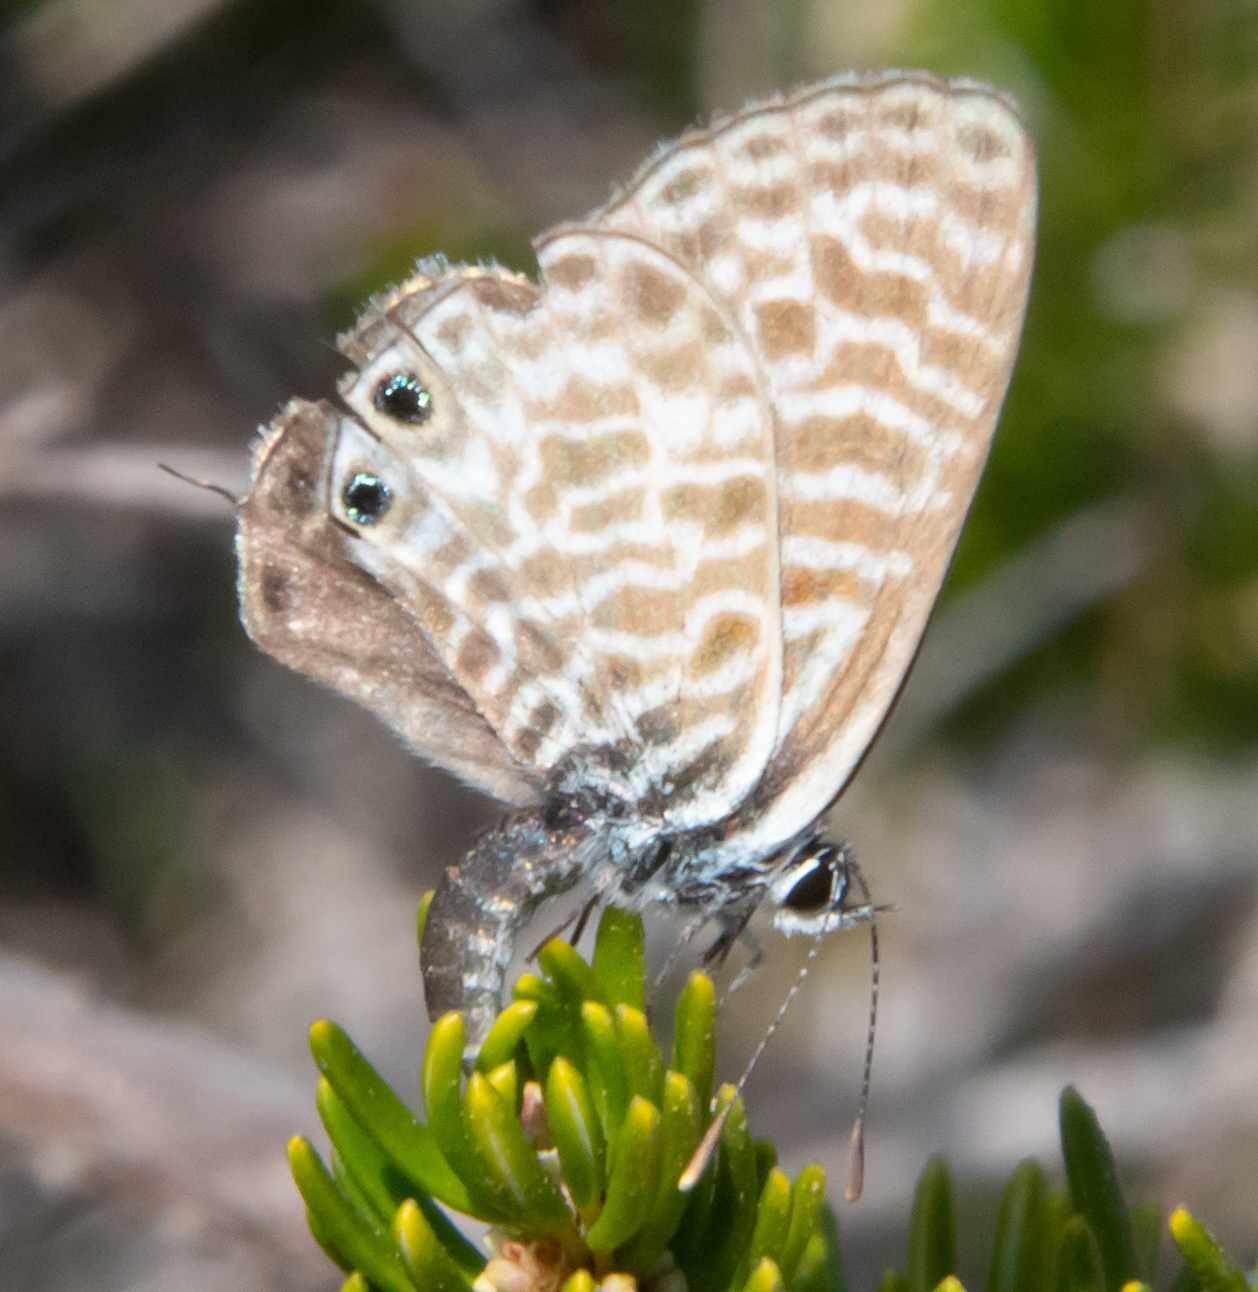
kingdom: Animalia
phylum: Arthropoda
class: Insecta
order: Lepidoptera
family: Lycaenidae
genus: Leptotes
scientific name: Leptotes pirithous
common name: Lang's short-tailed blue
